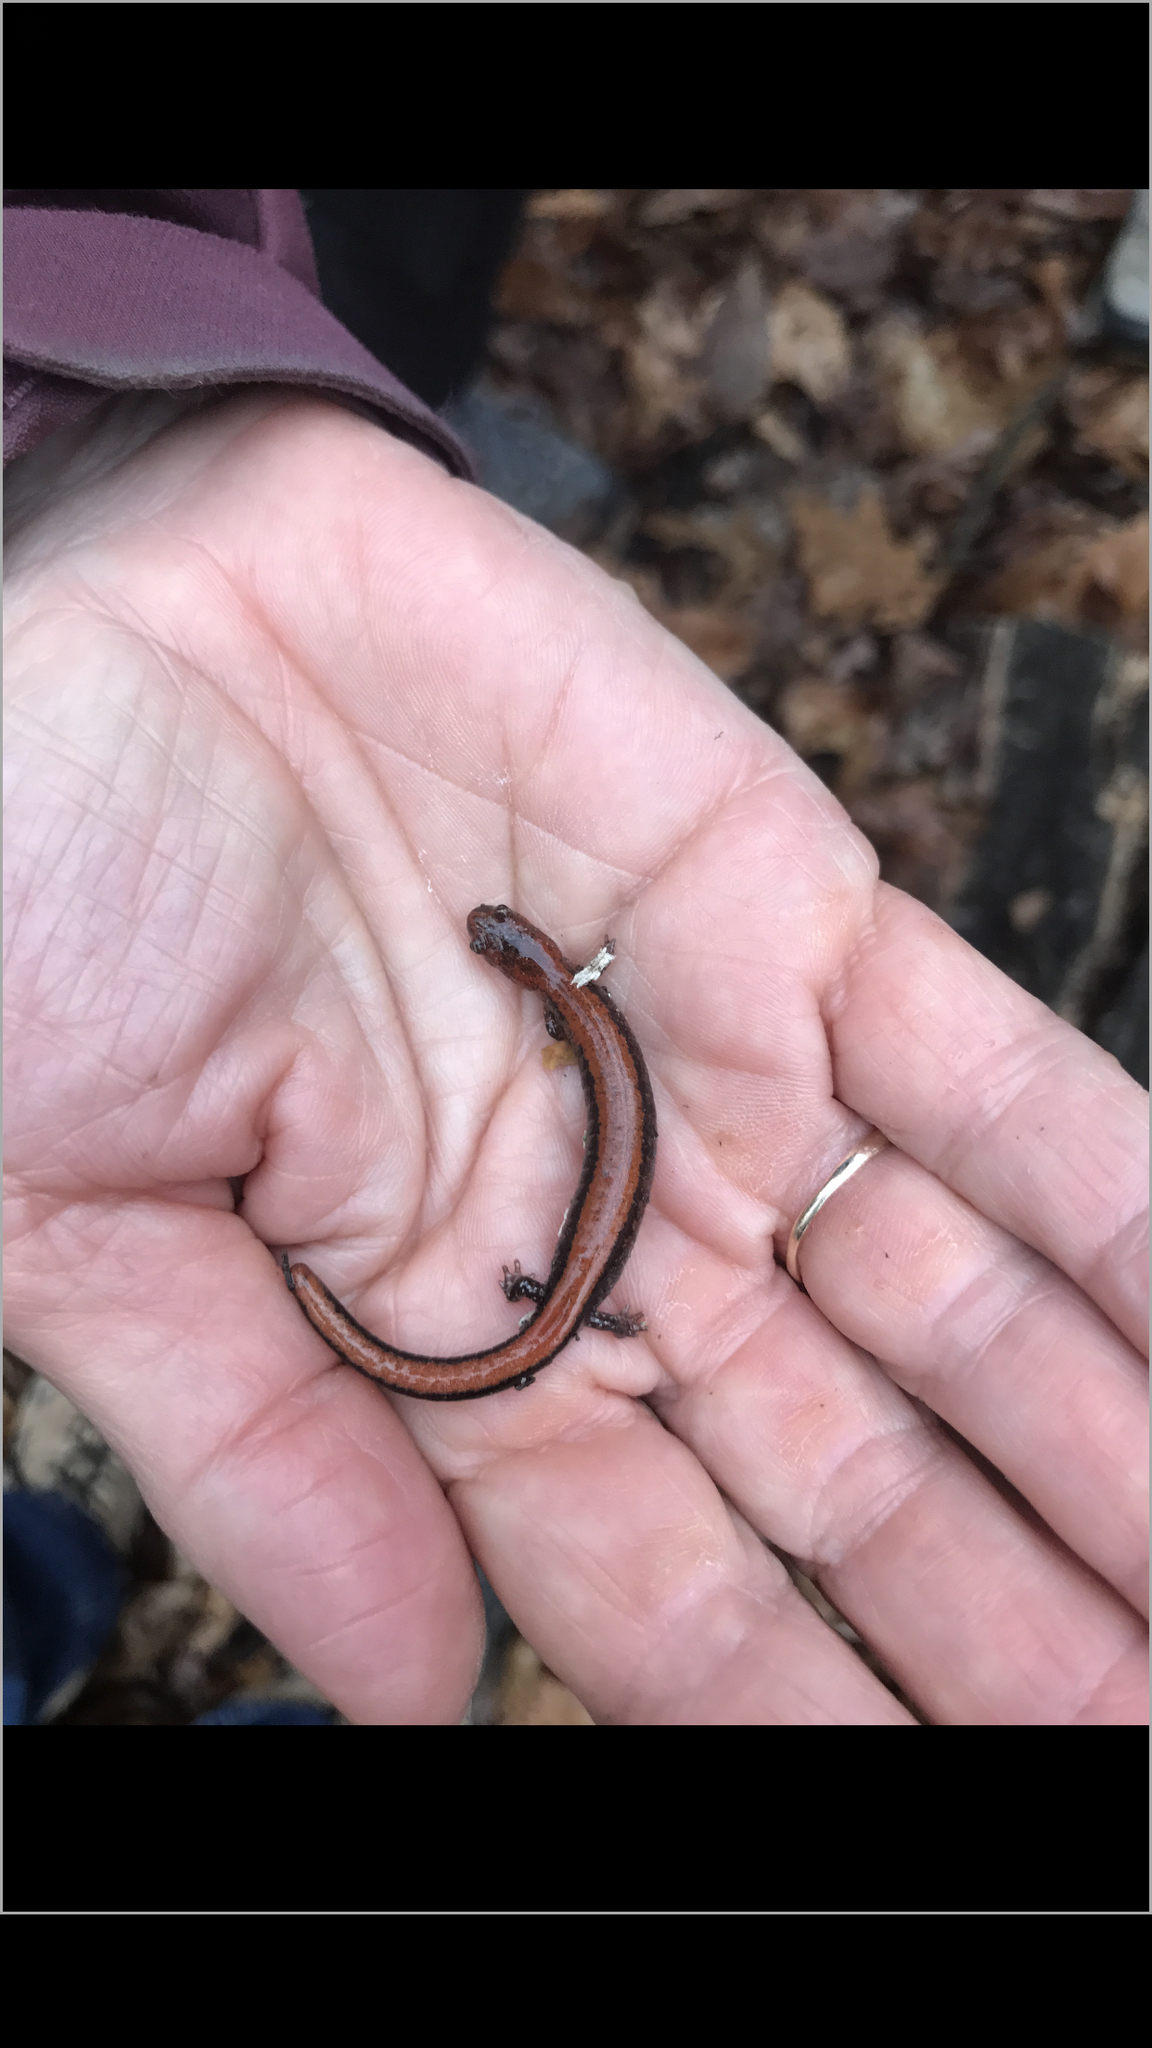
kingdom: Animalia
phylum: Chordata
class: Amphibia
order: Caudata
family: Plethodontidae
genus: Plethodon
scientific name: Plethodon cinereus
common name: Redback salamander
